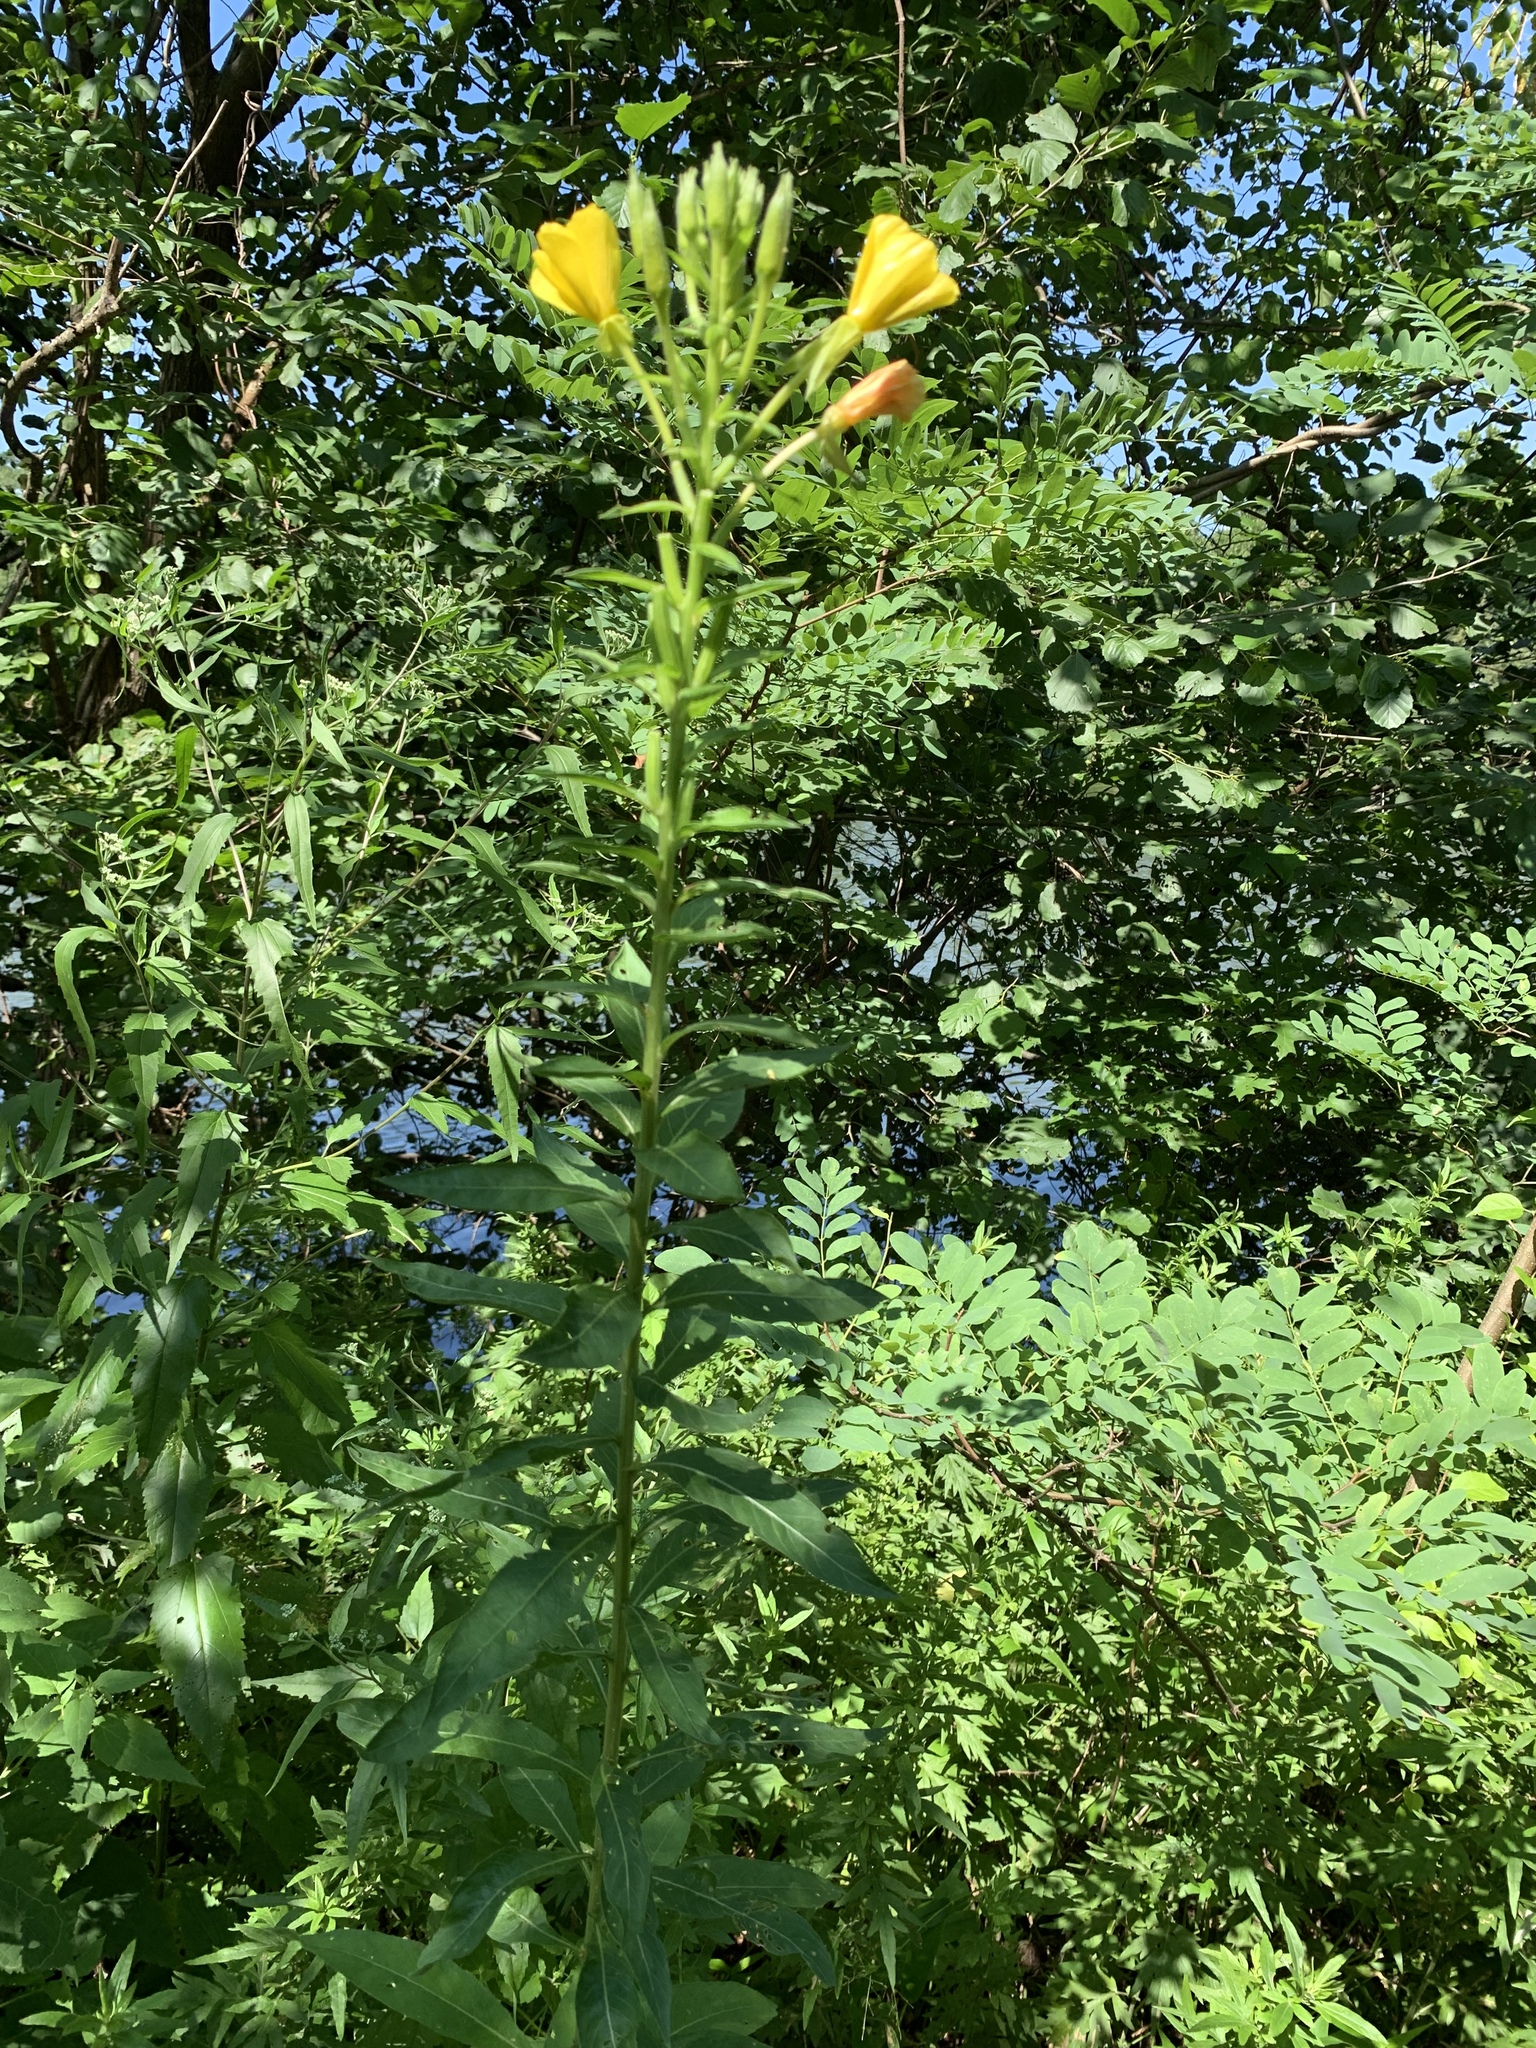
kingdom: Plantae
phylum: Tracheophyta
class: Magnoliopsida
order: Myrtales
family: Onagraceae
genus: Oenothera
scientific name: Oenothera biennis
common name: Common evening-primrose
